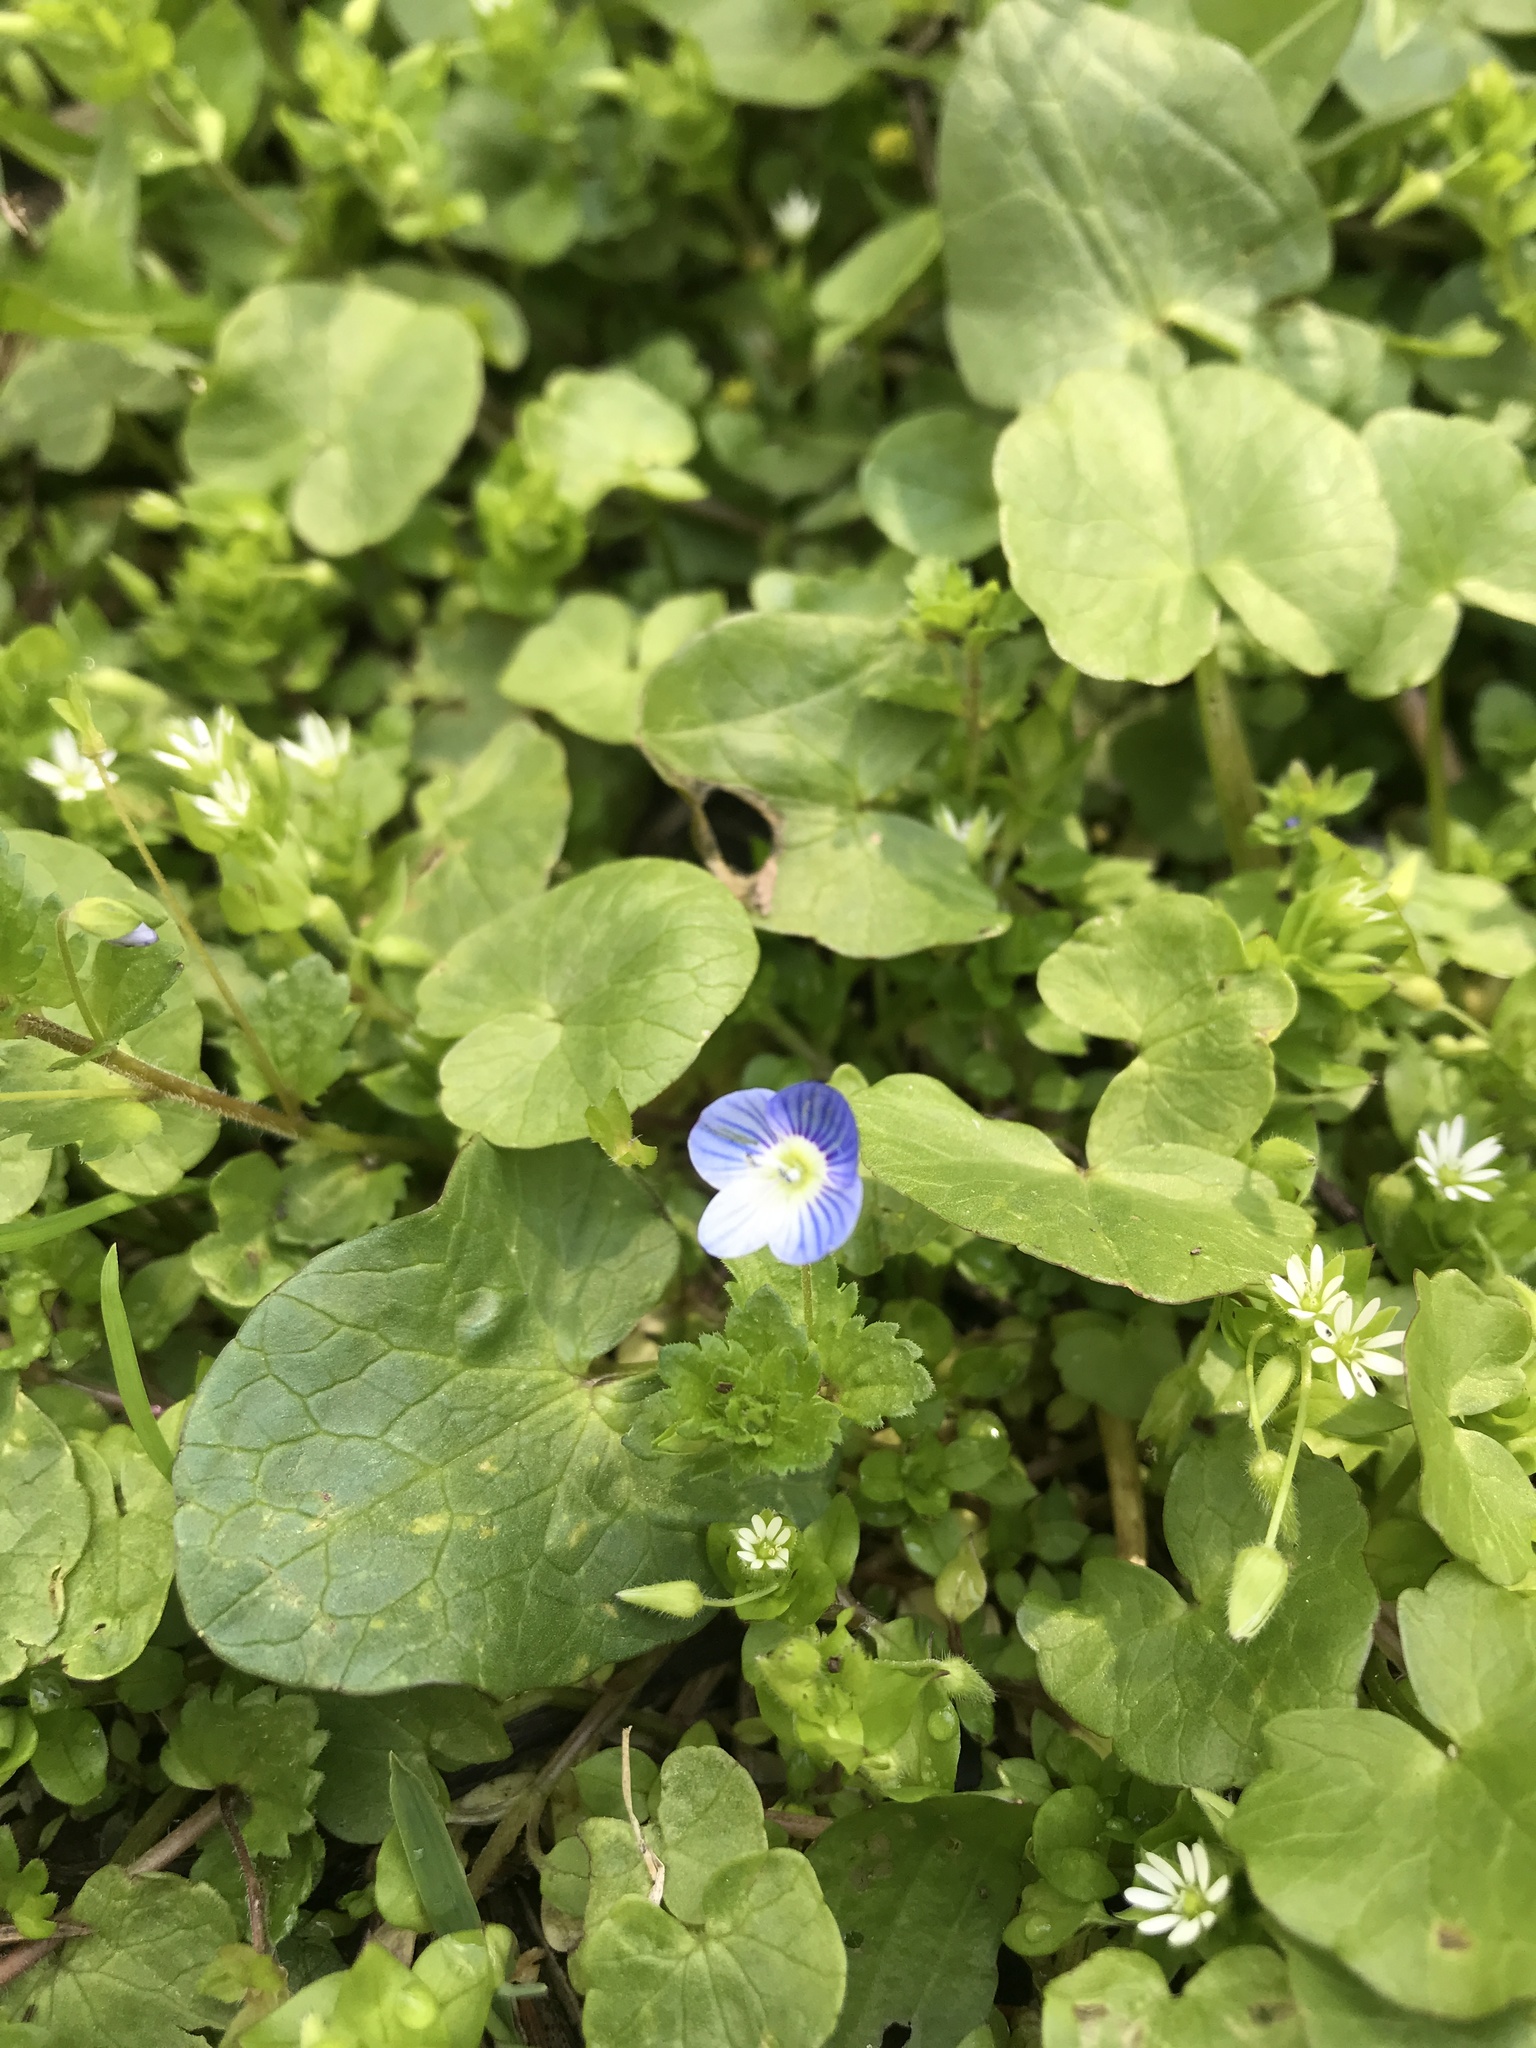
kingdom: Plantae
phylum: Tracheophyta
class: Magnoliopsida
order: Lamiales
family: Plantaginaceae
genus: Veronica
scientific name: Veronica persica
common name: Common field-speedwell
